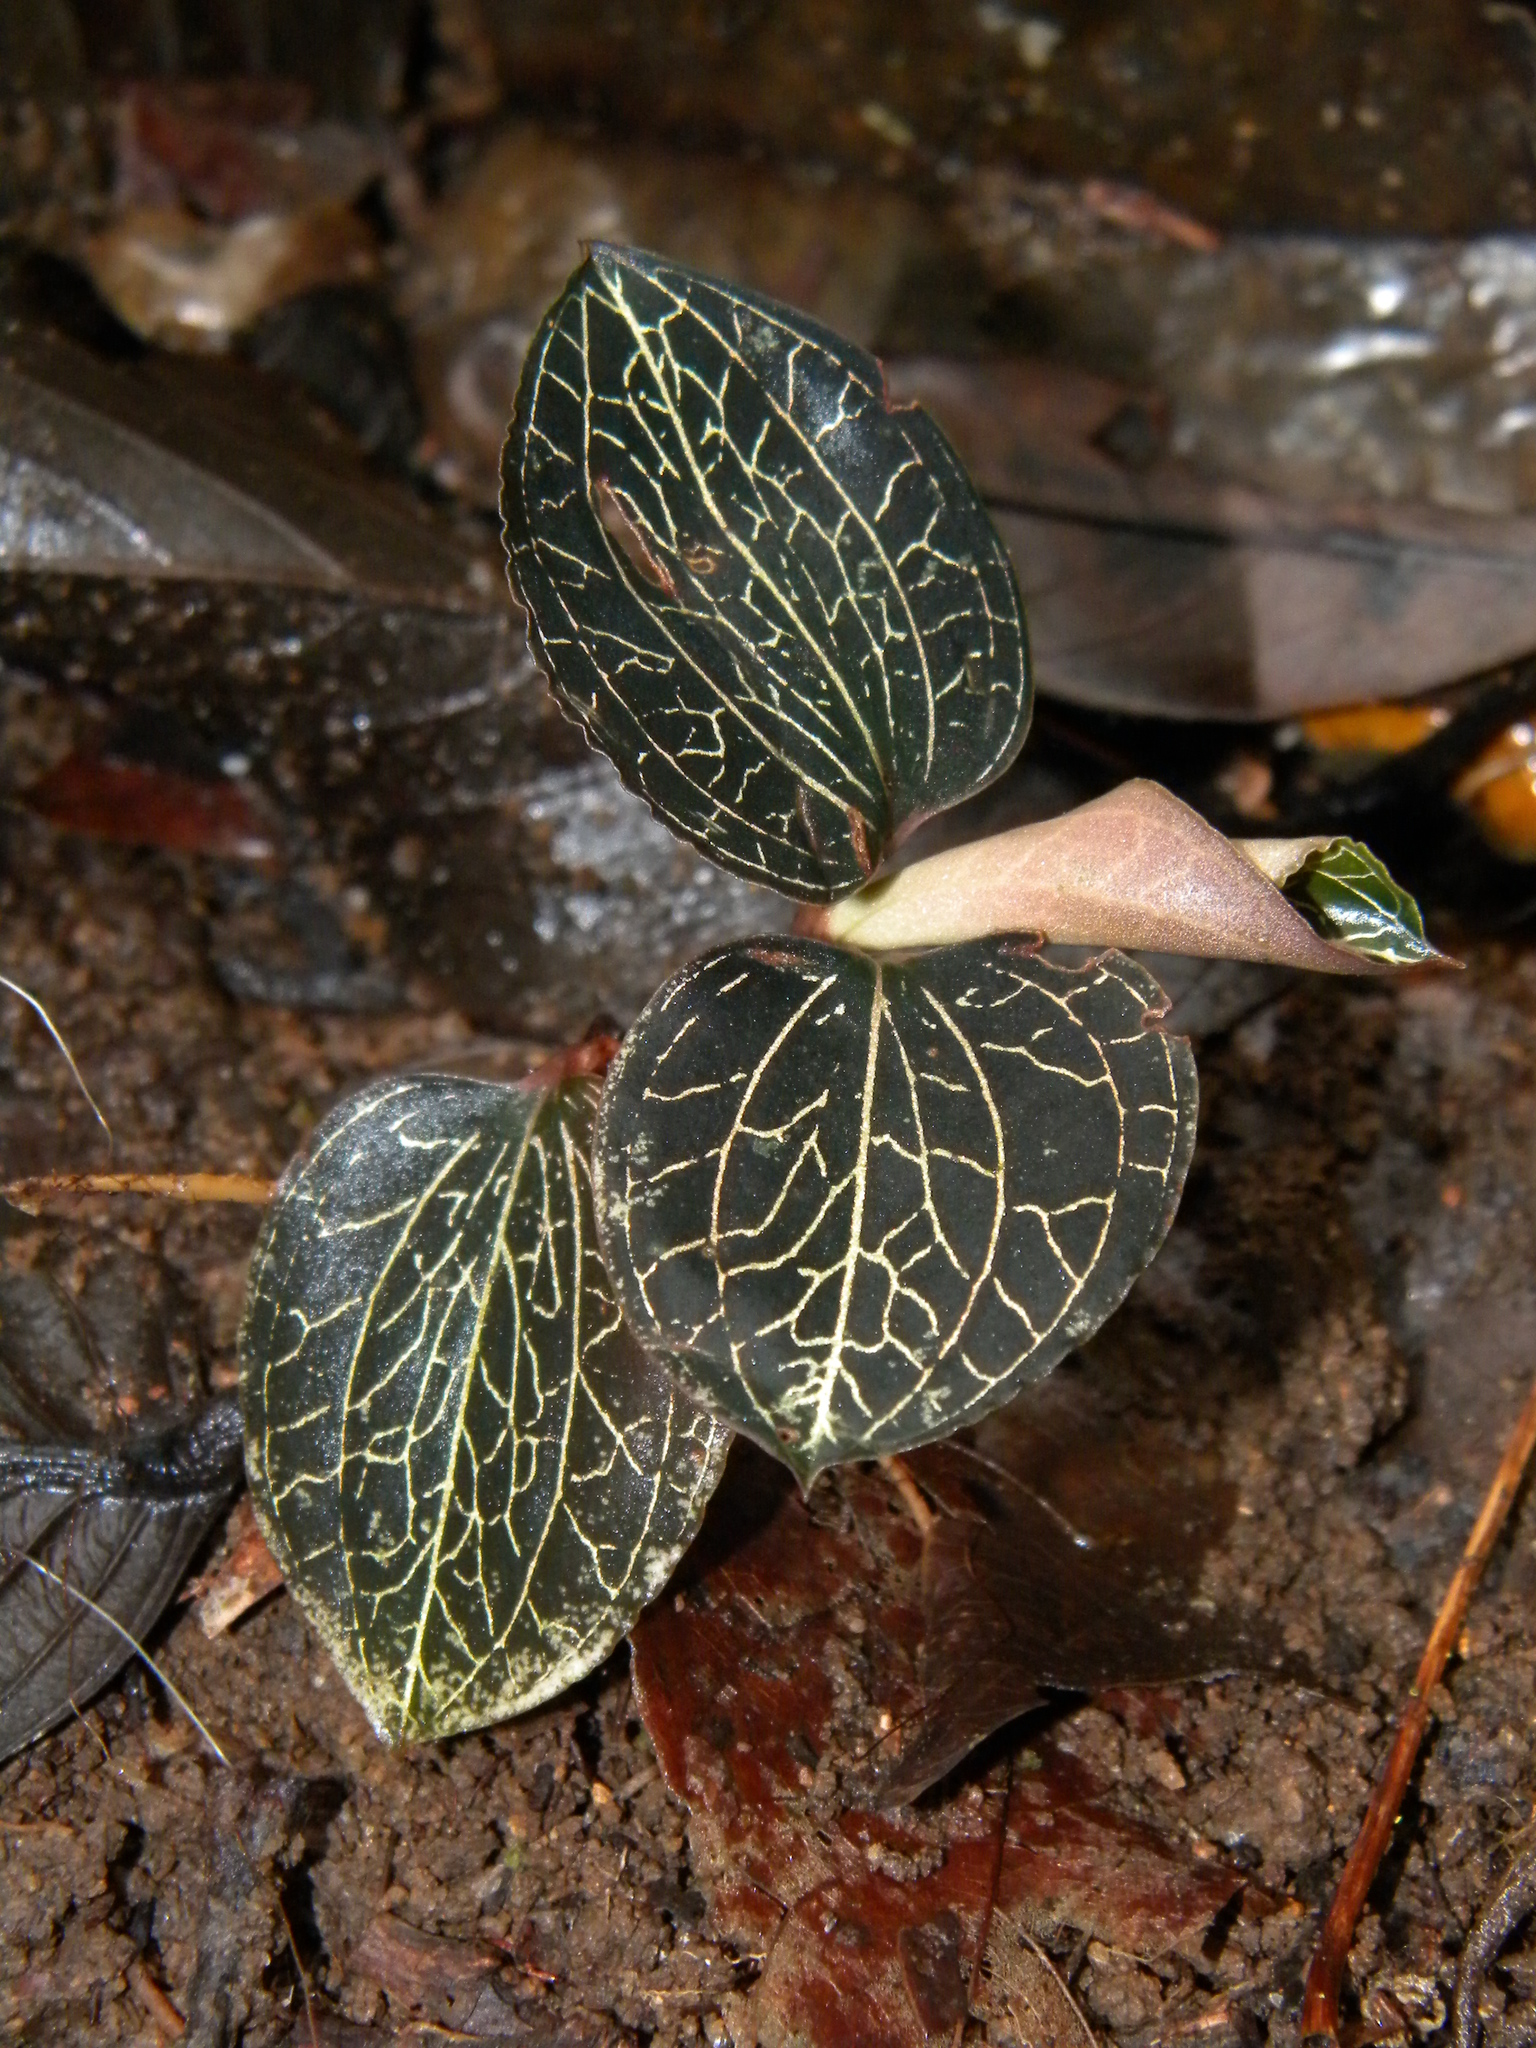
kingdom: Plantae
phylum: Tracheophyta
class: Liliopsida
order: Asparagales
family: Orchidaceae
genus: Anoectochilus
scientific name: Anoectochilus elatus
